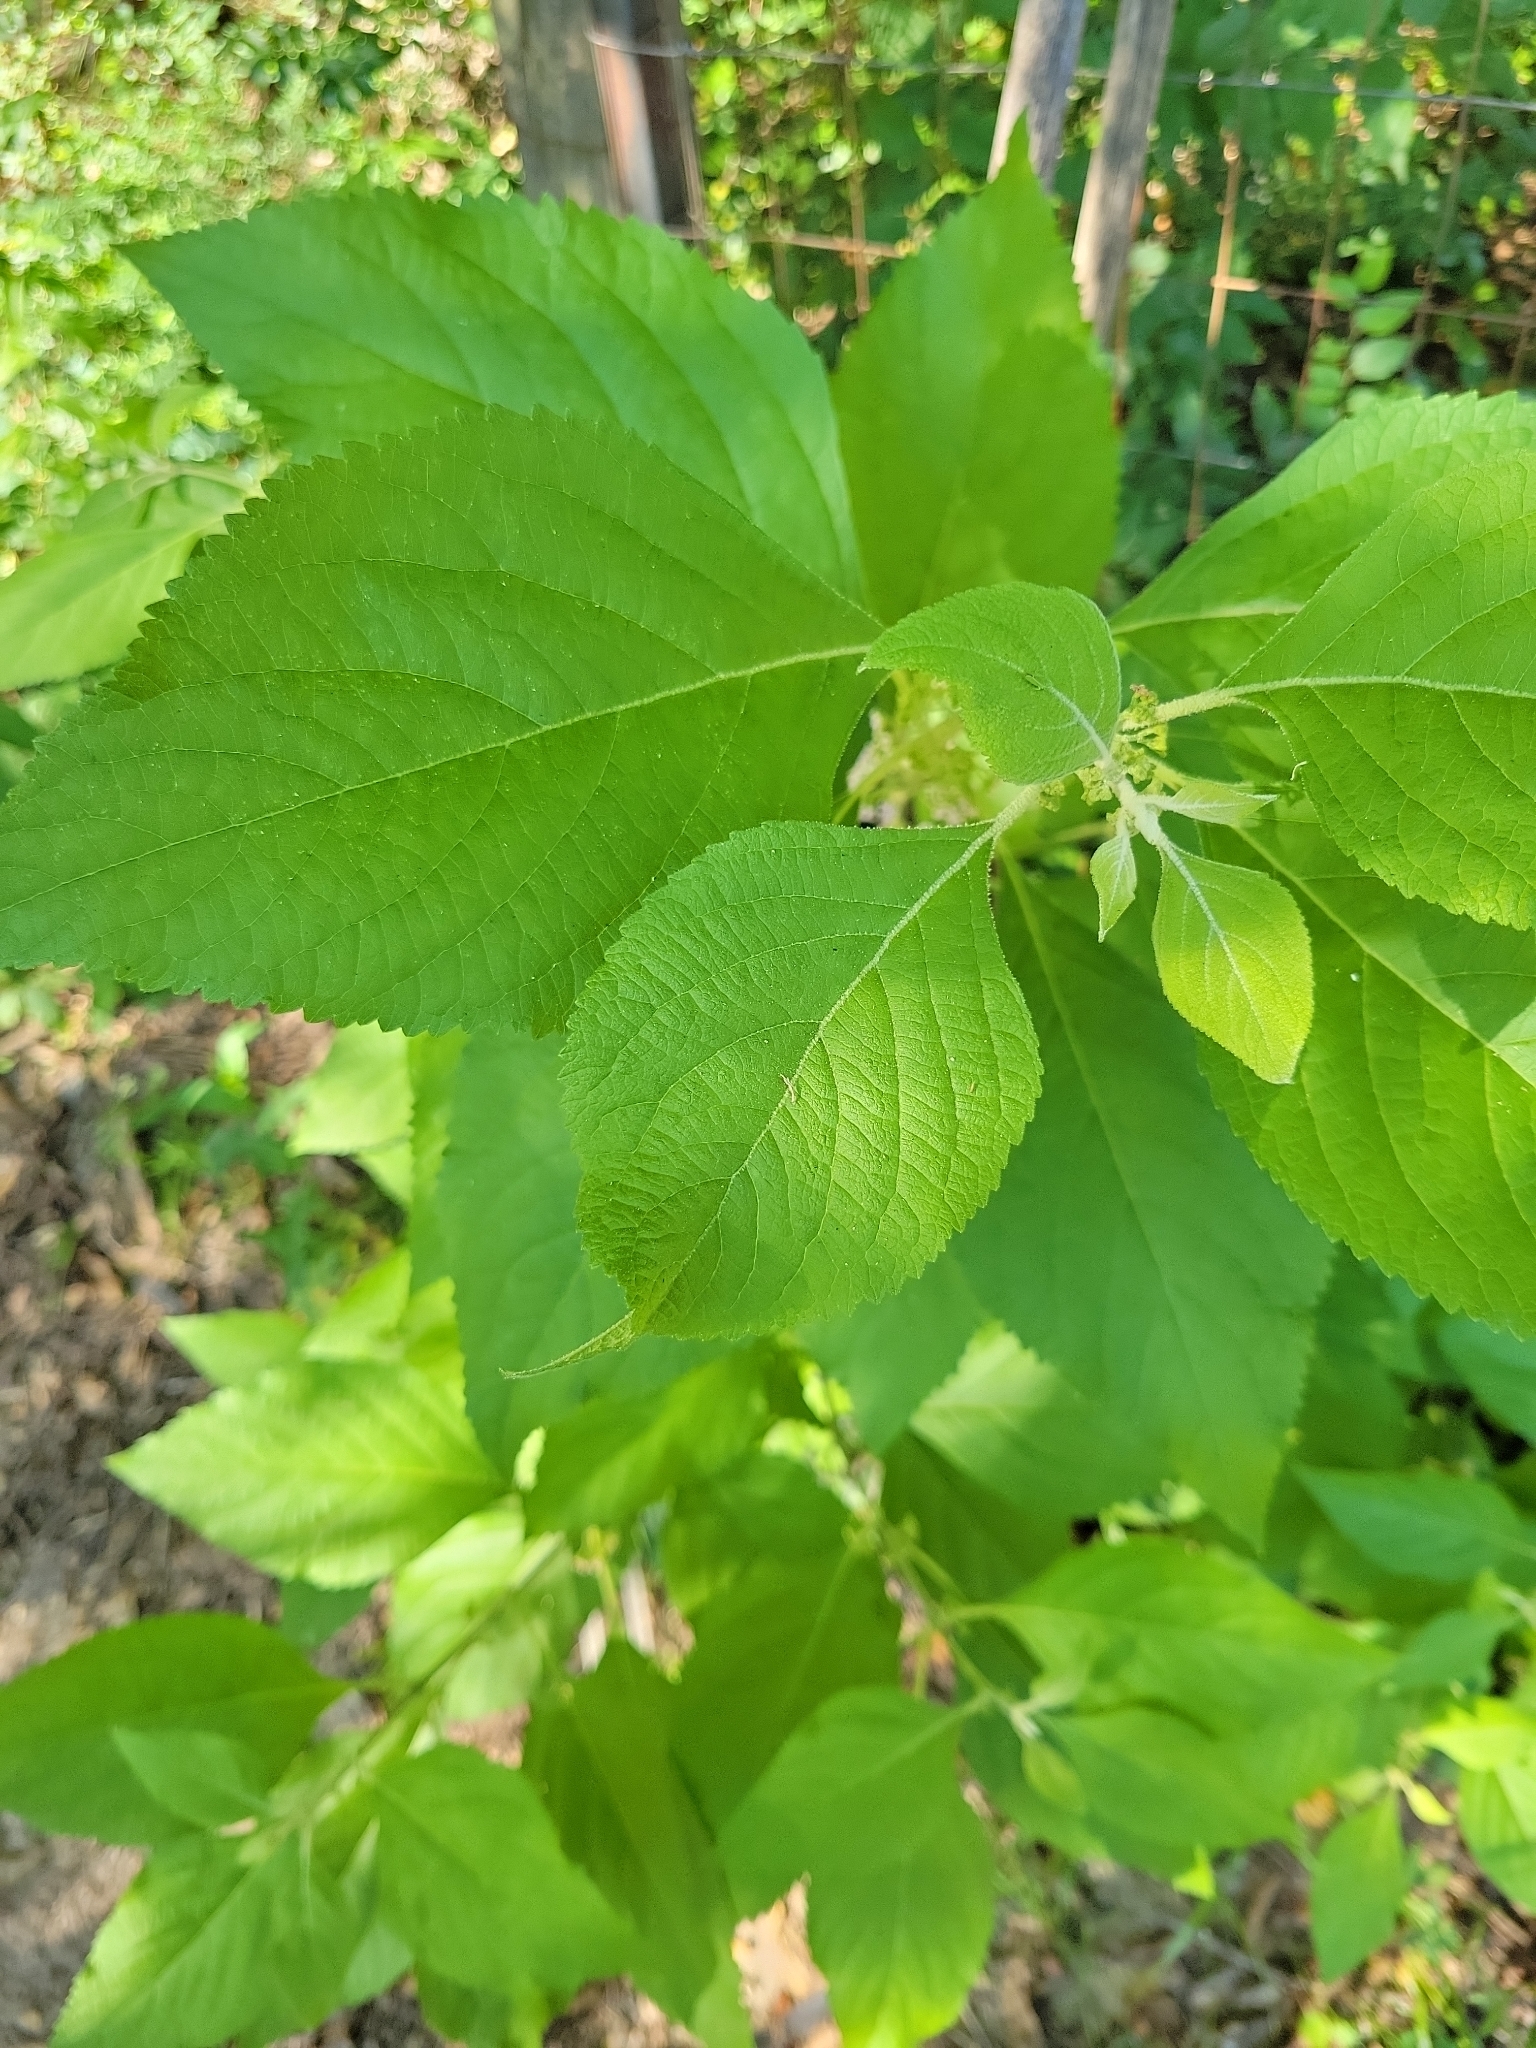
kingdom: Plantae
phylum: Tracheophyta
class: Magnoliopsida
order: Lamiales
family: Lamiaceae
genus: Callicarpa
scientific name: Callicarpa americana
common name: American beautyberry
